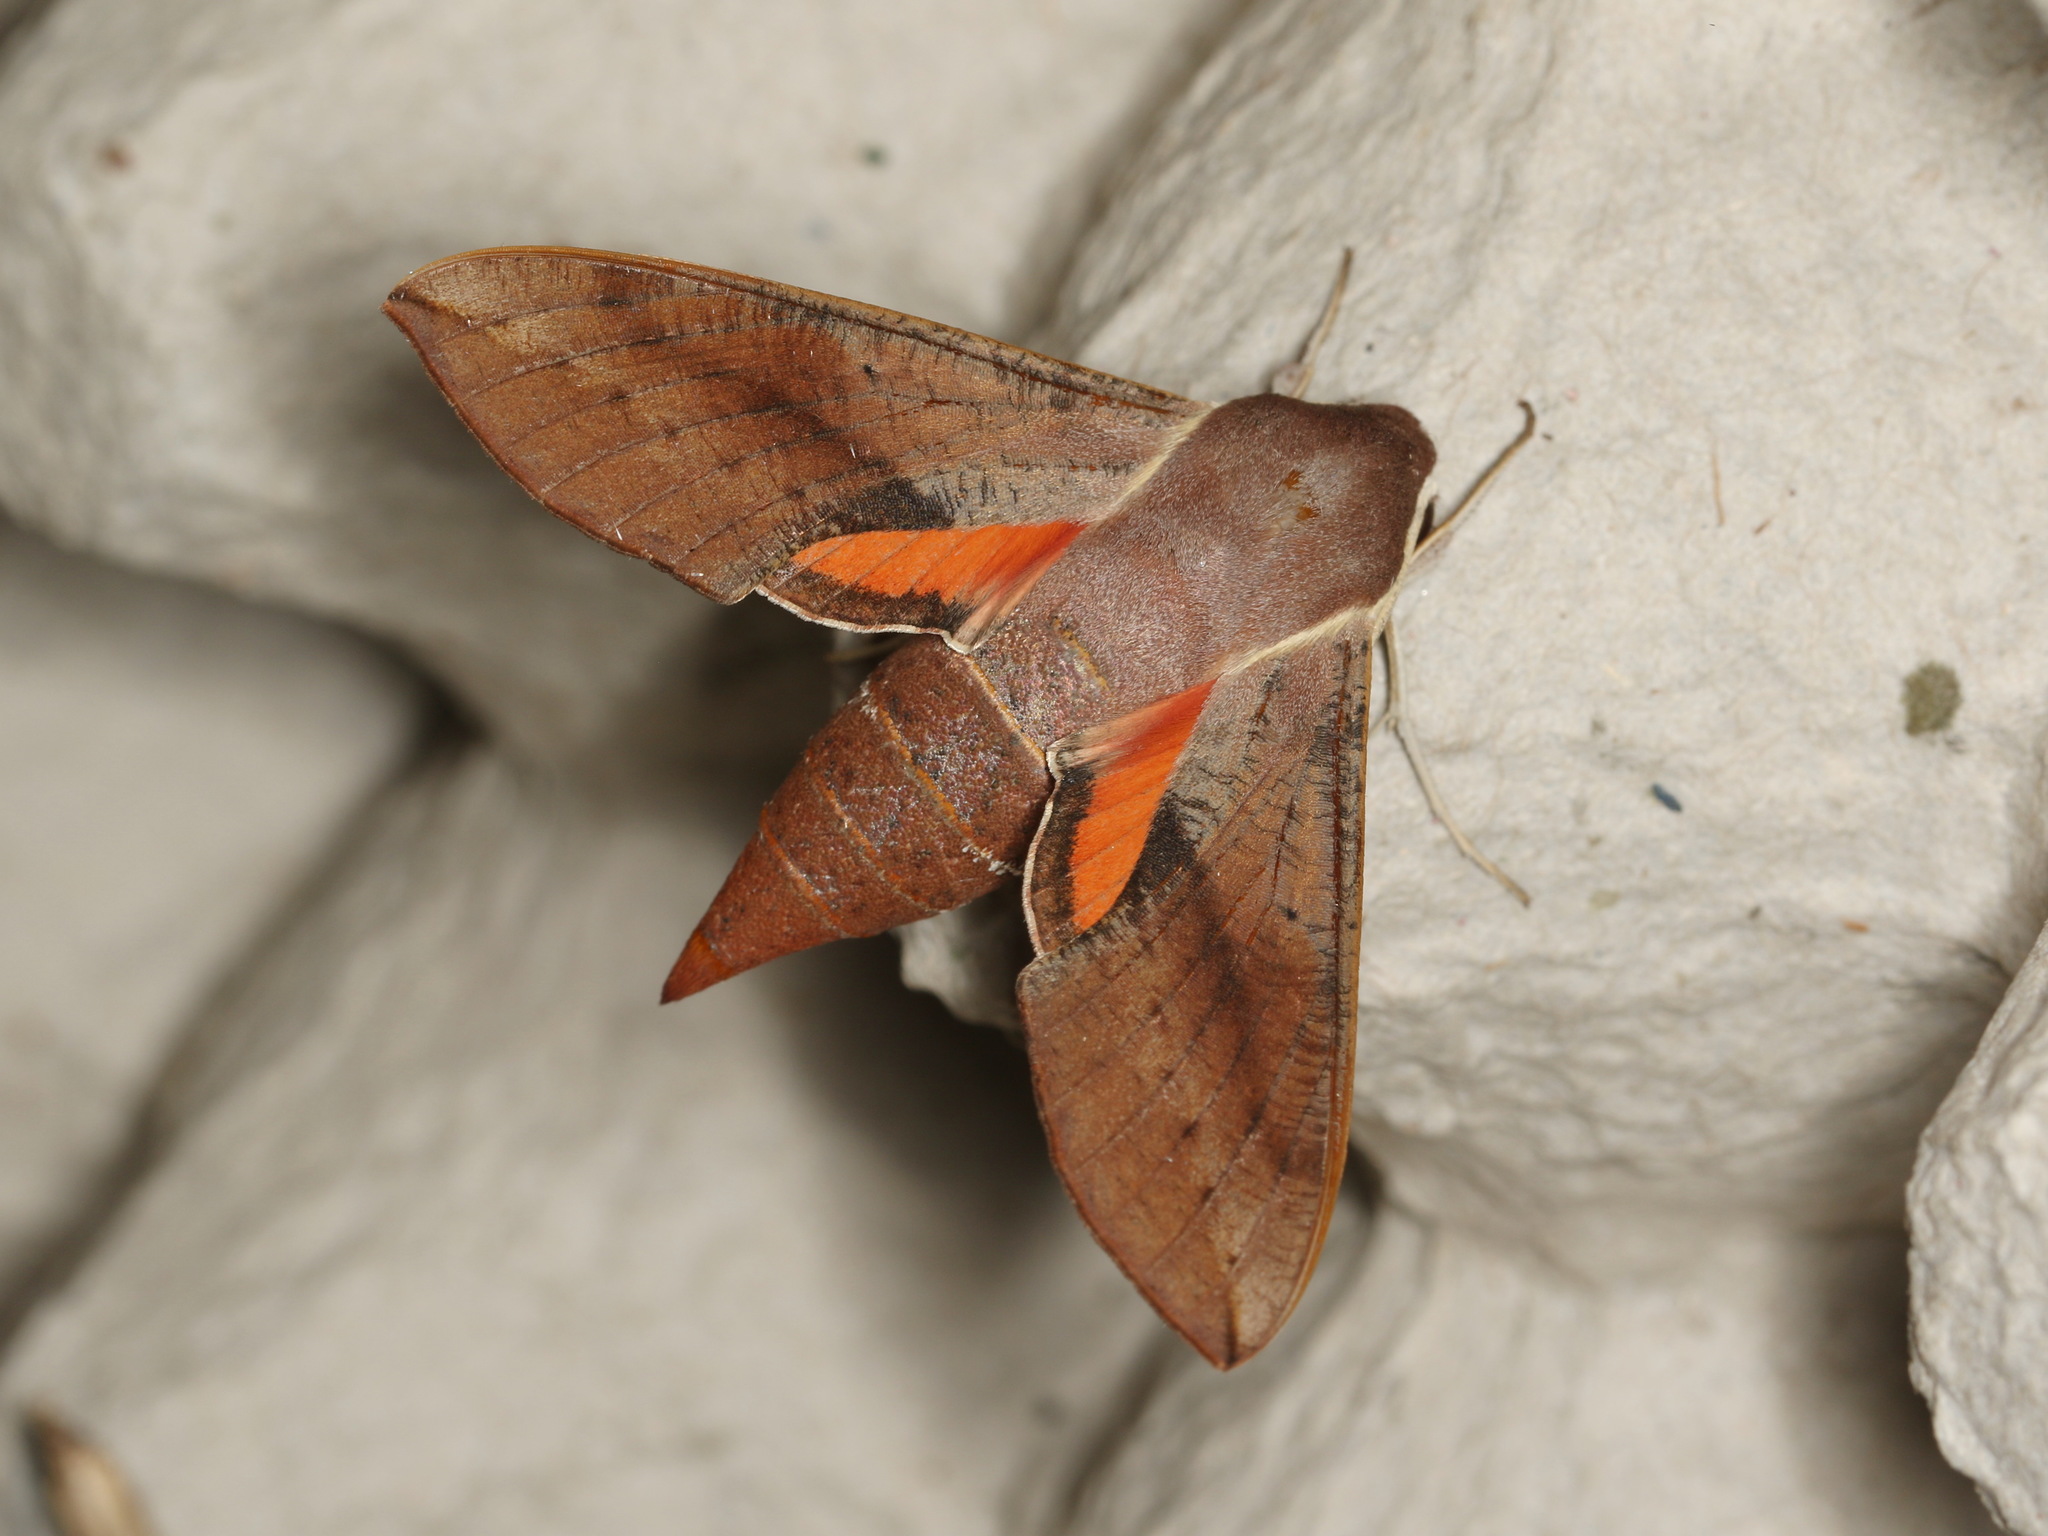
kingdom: Animalia
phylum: Arthropoda
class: Insecta
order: Lepidoptera
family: Sphingidae
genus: Hippotion
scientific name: Hippotion scrofa
